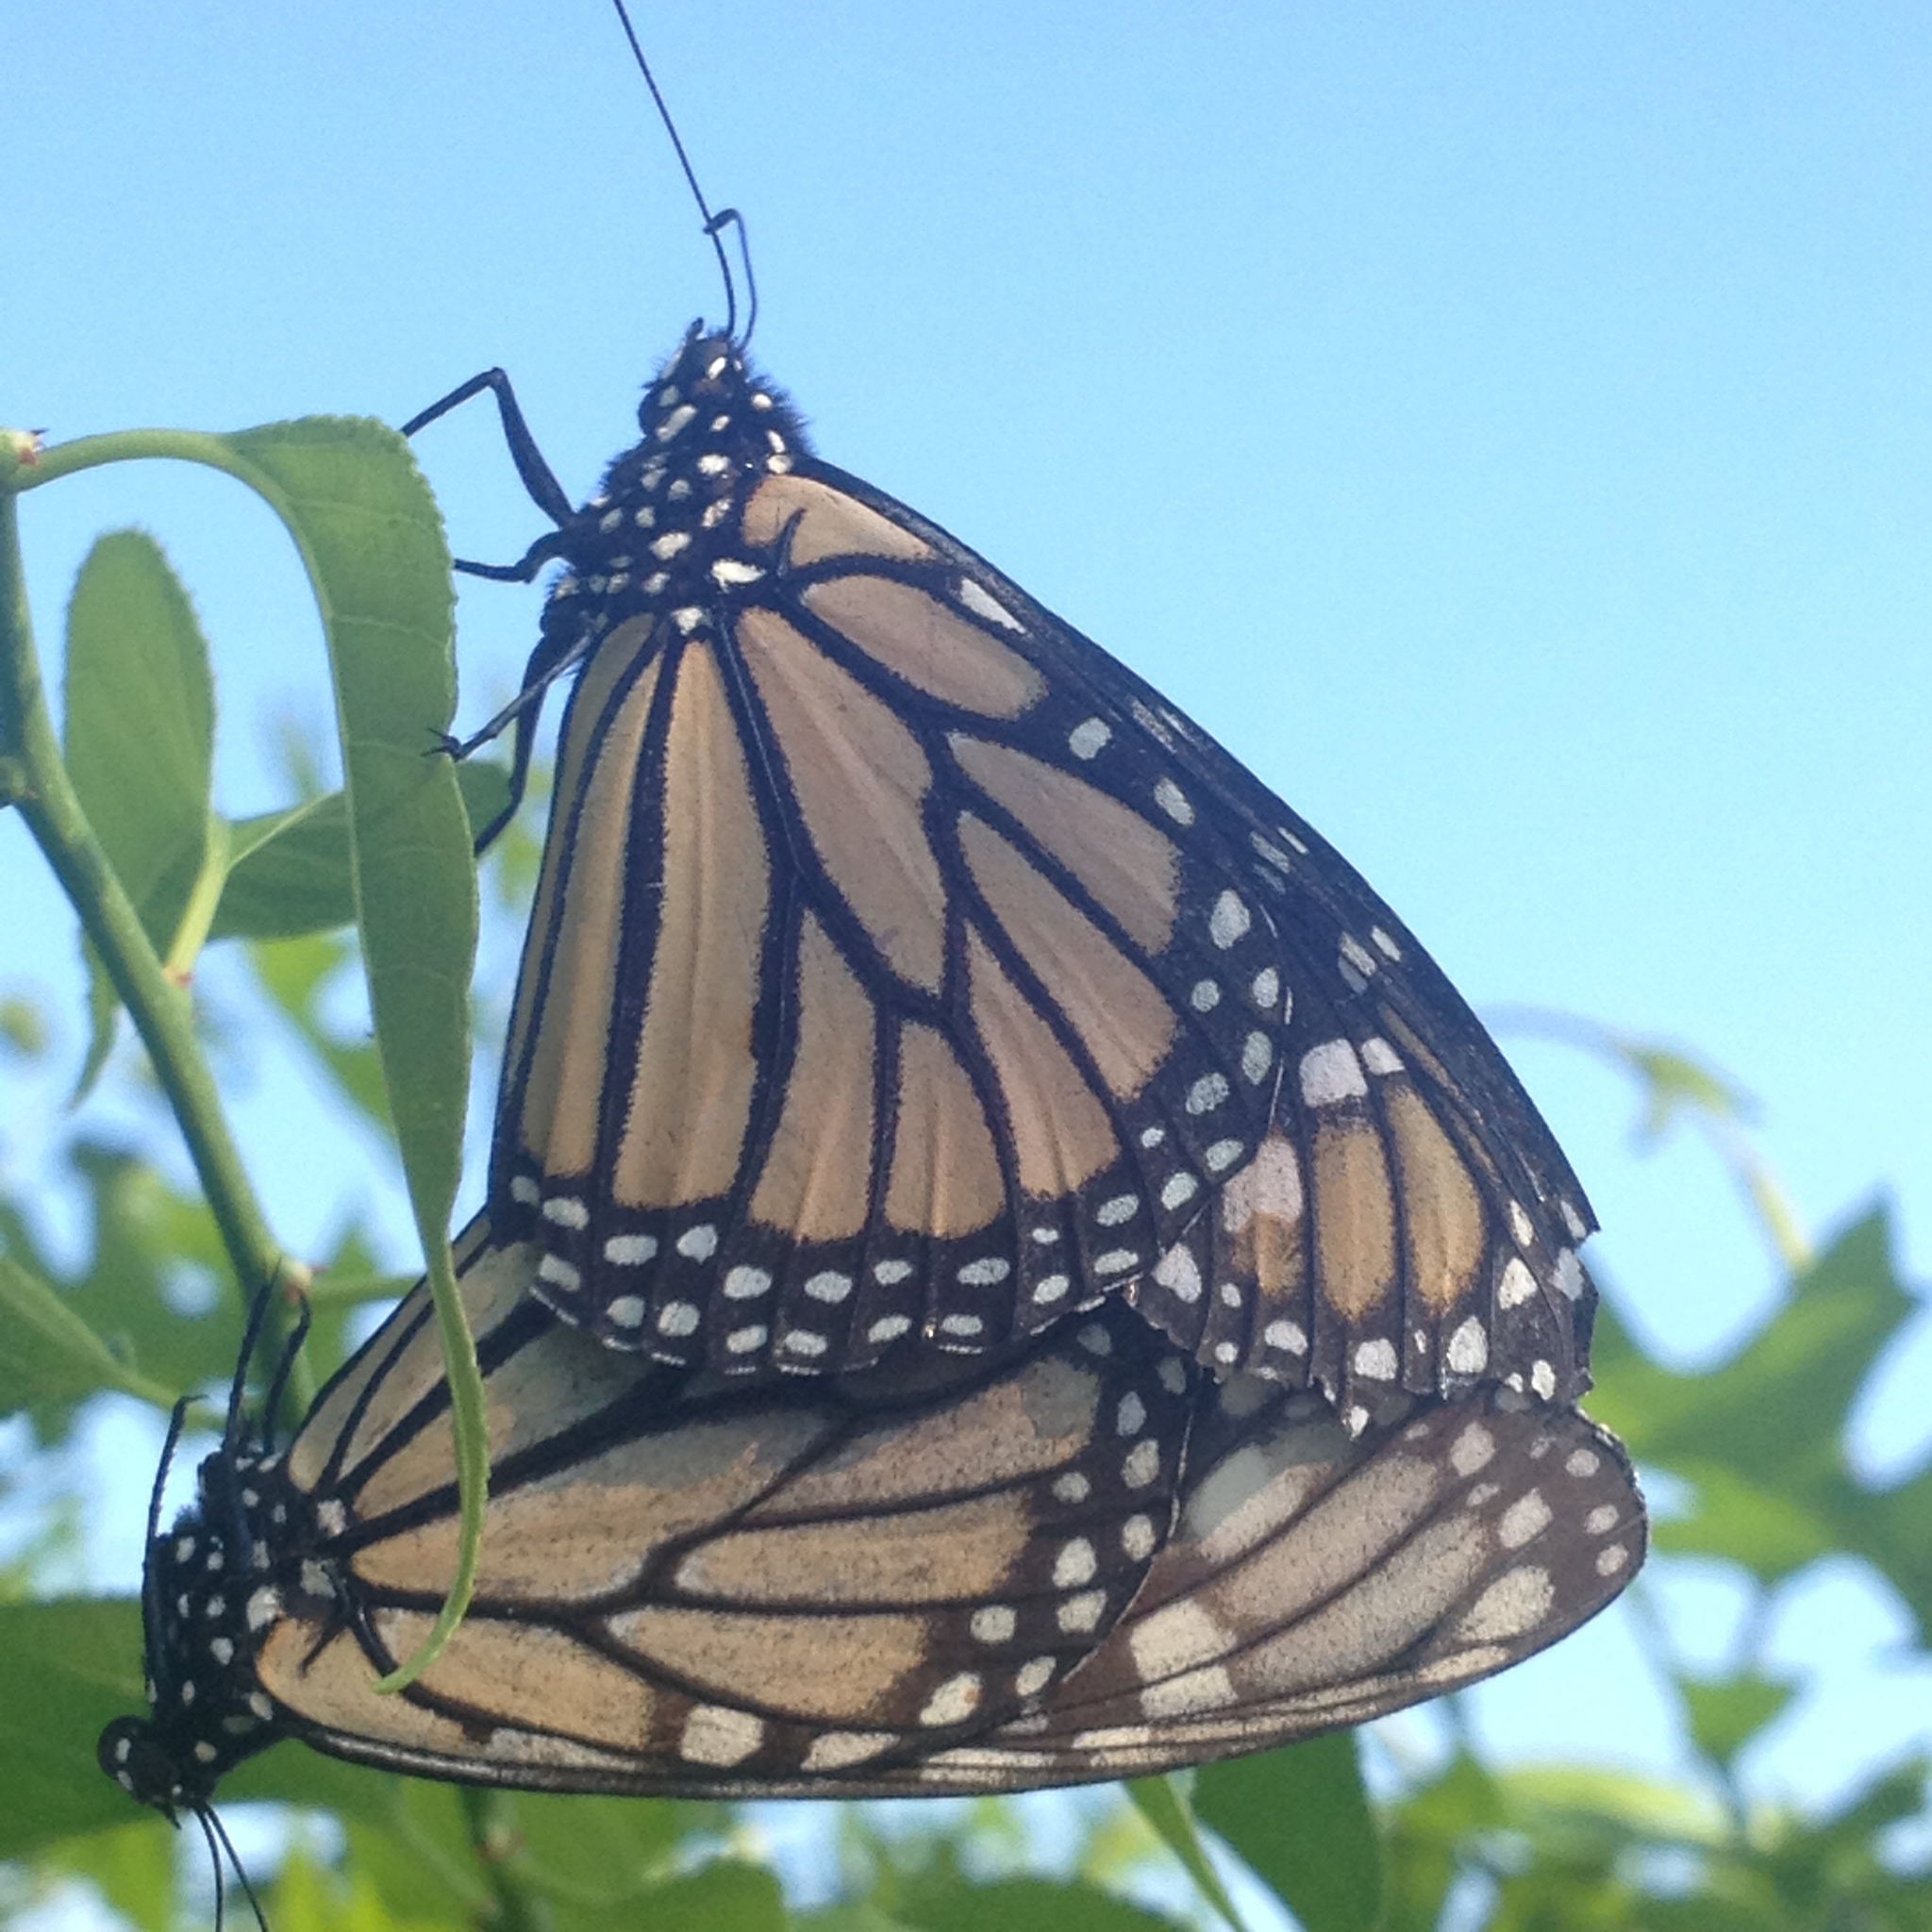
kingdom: Animalia
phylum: Arthropoda
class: Insecta
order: Lepidoptera
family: Nymphalidae
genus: Danaus
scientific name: Danaus plexippus
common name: Monarch
